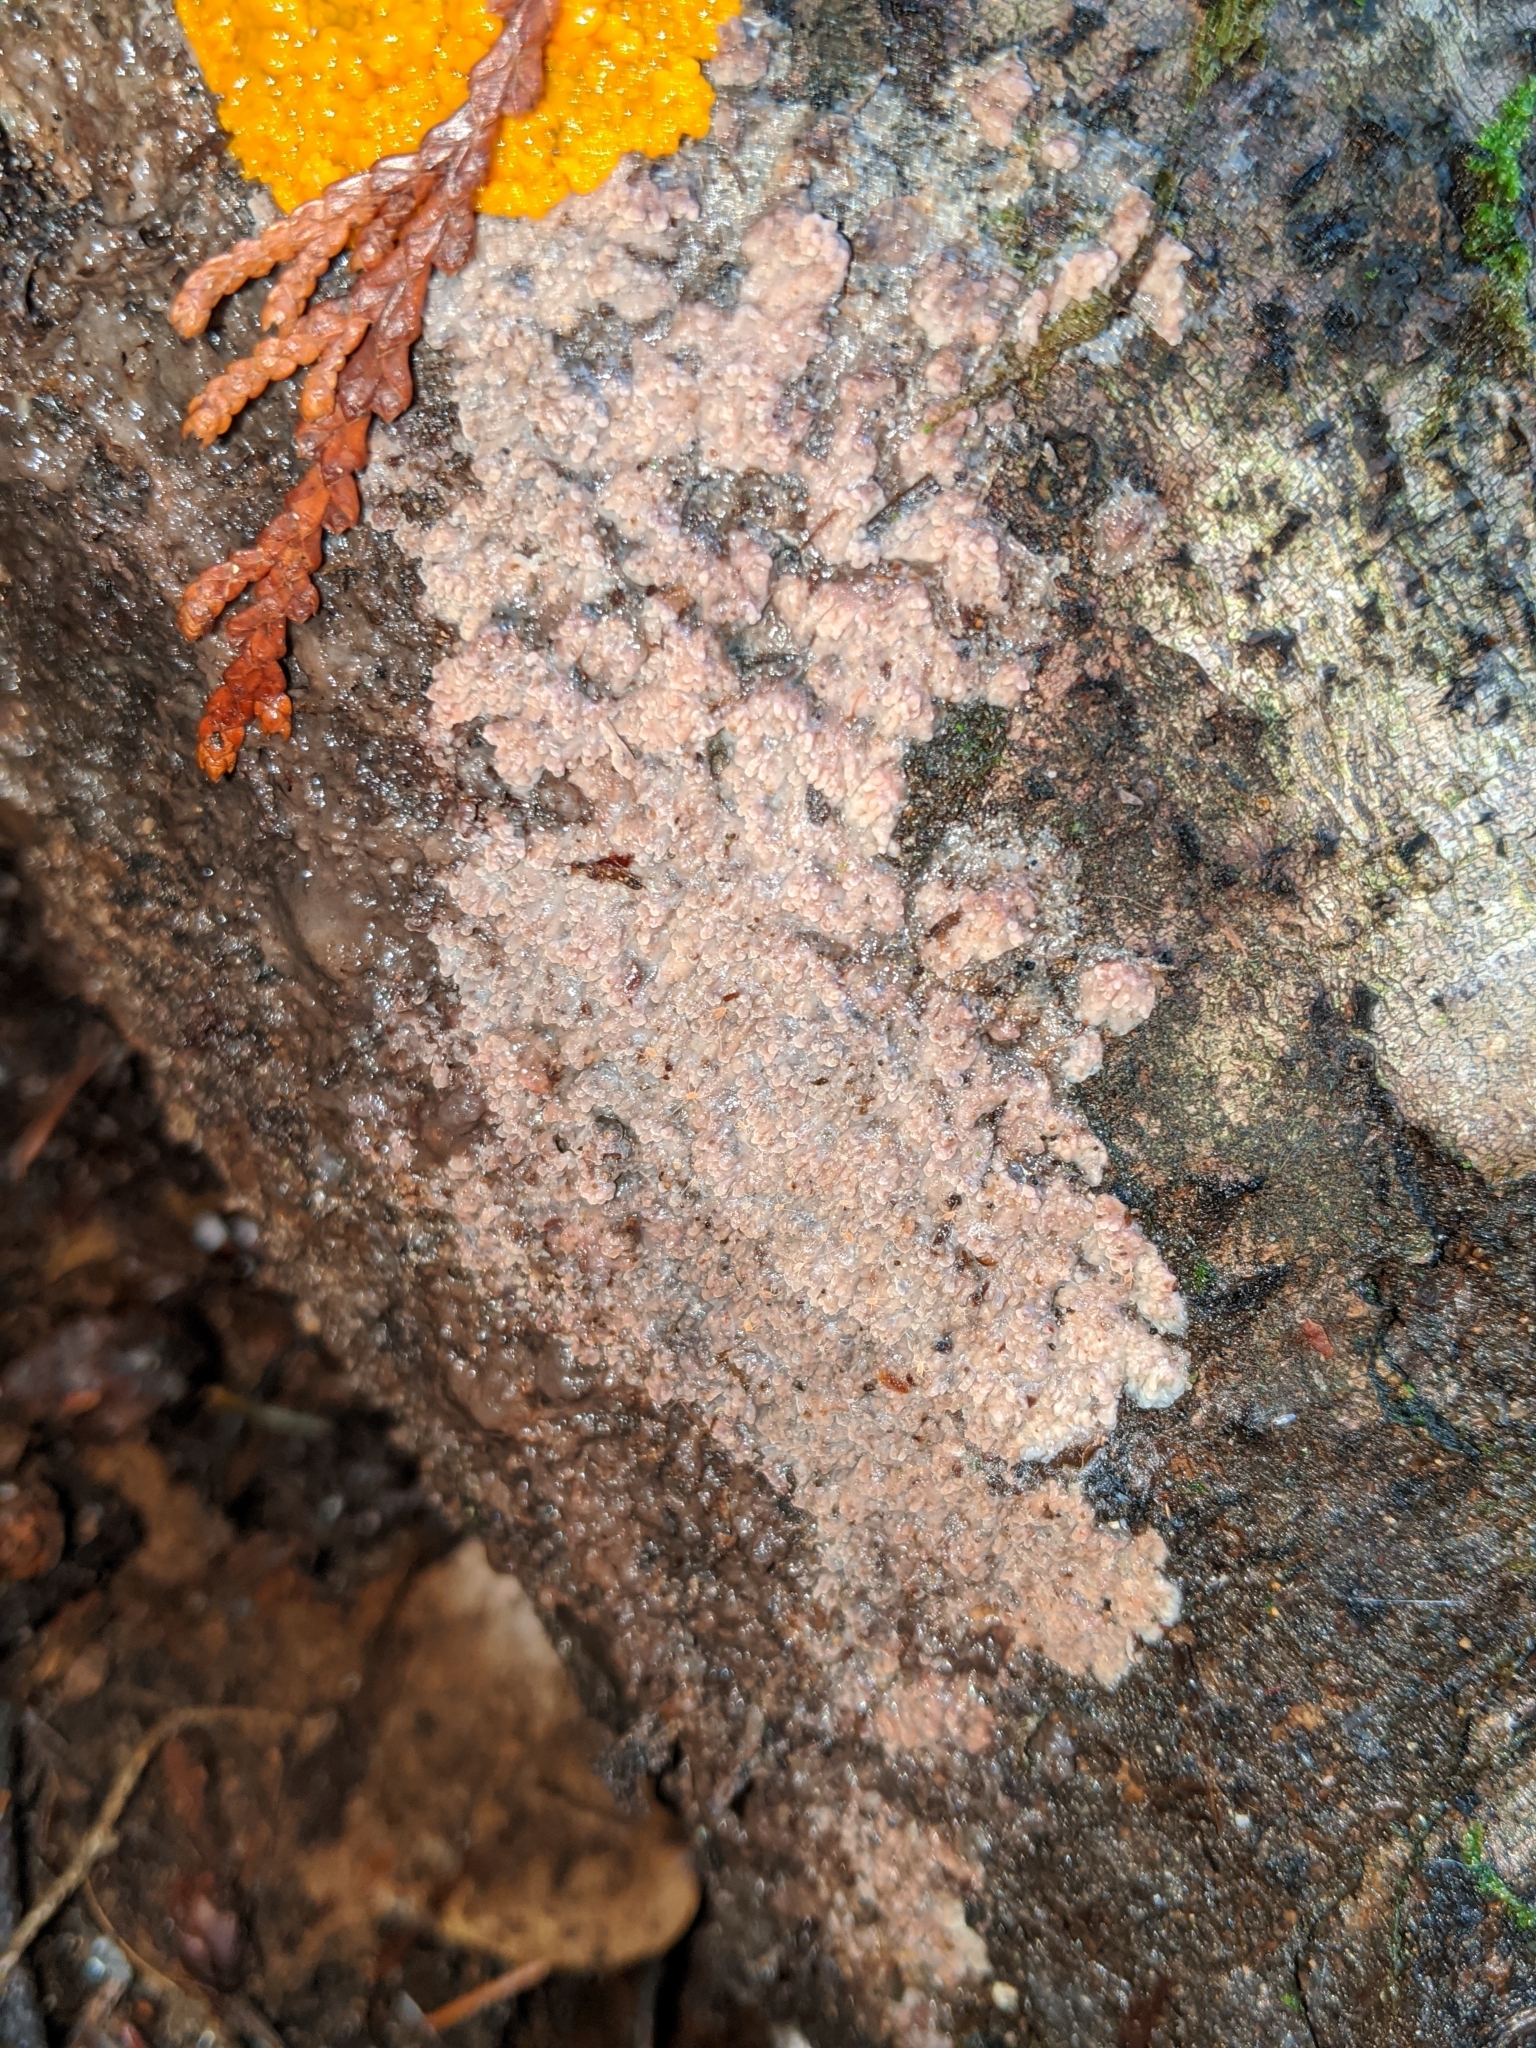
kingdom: Fungi
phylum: Basidiomycota
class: Agaricomycetes
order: Polyporales
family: Meruliaceae
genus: Phlebia
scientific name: Phlebia radiata
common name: Wrinkled crust
